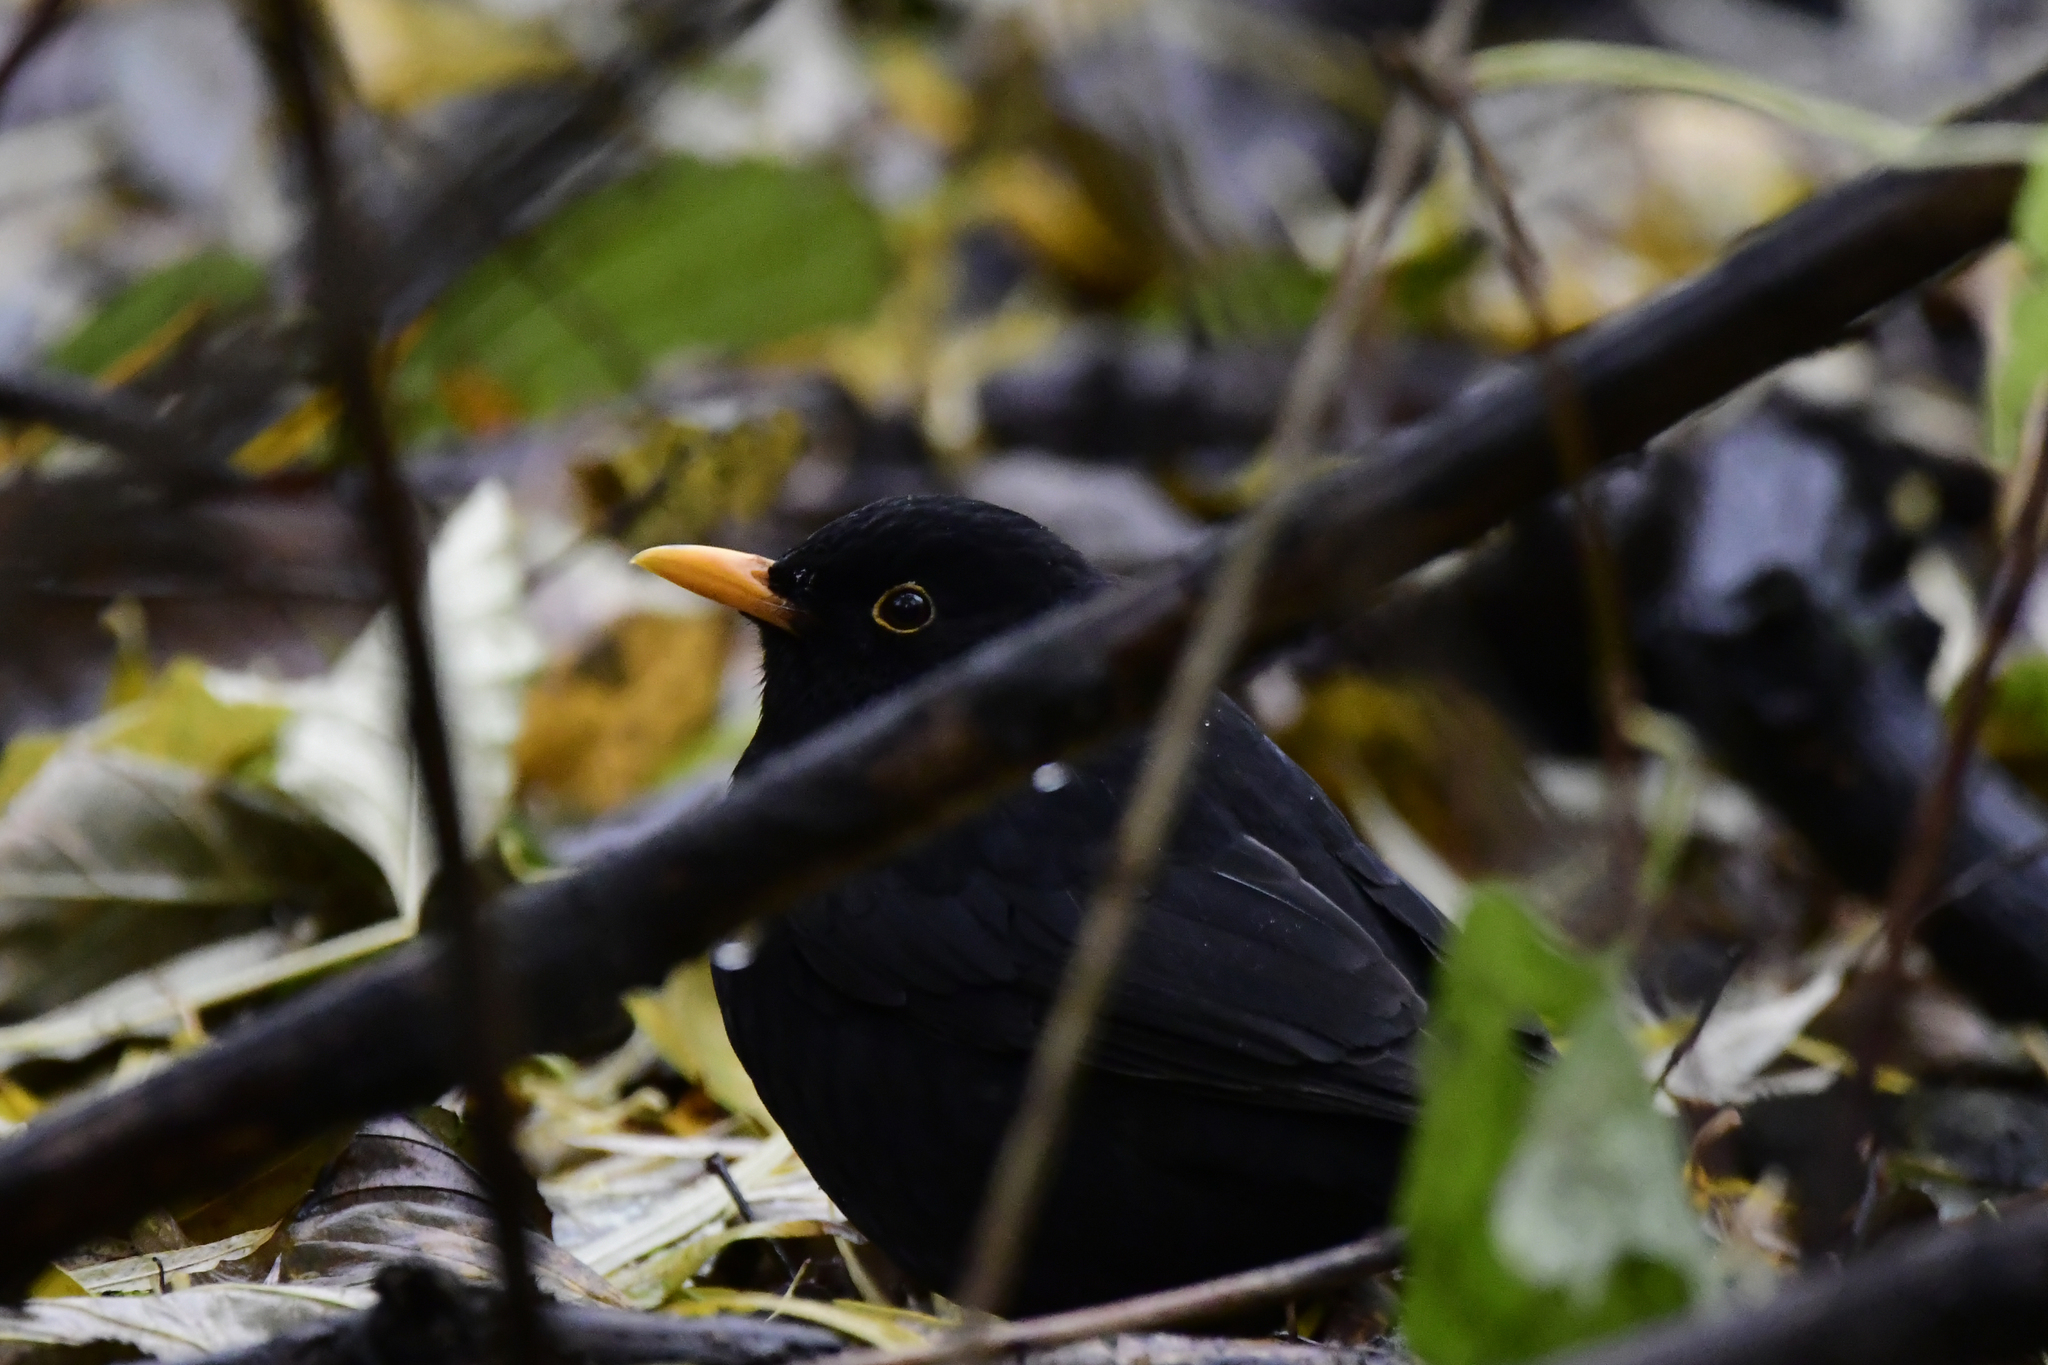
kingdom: Animalia
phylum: Chordata
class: Aves
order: Passeriformes
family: Turdidae
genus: Turdus
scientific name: Turdus merula
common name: Common blackbird
